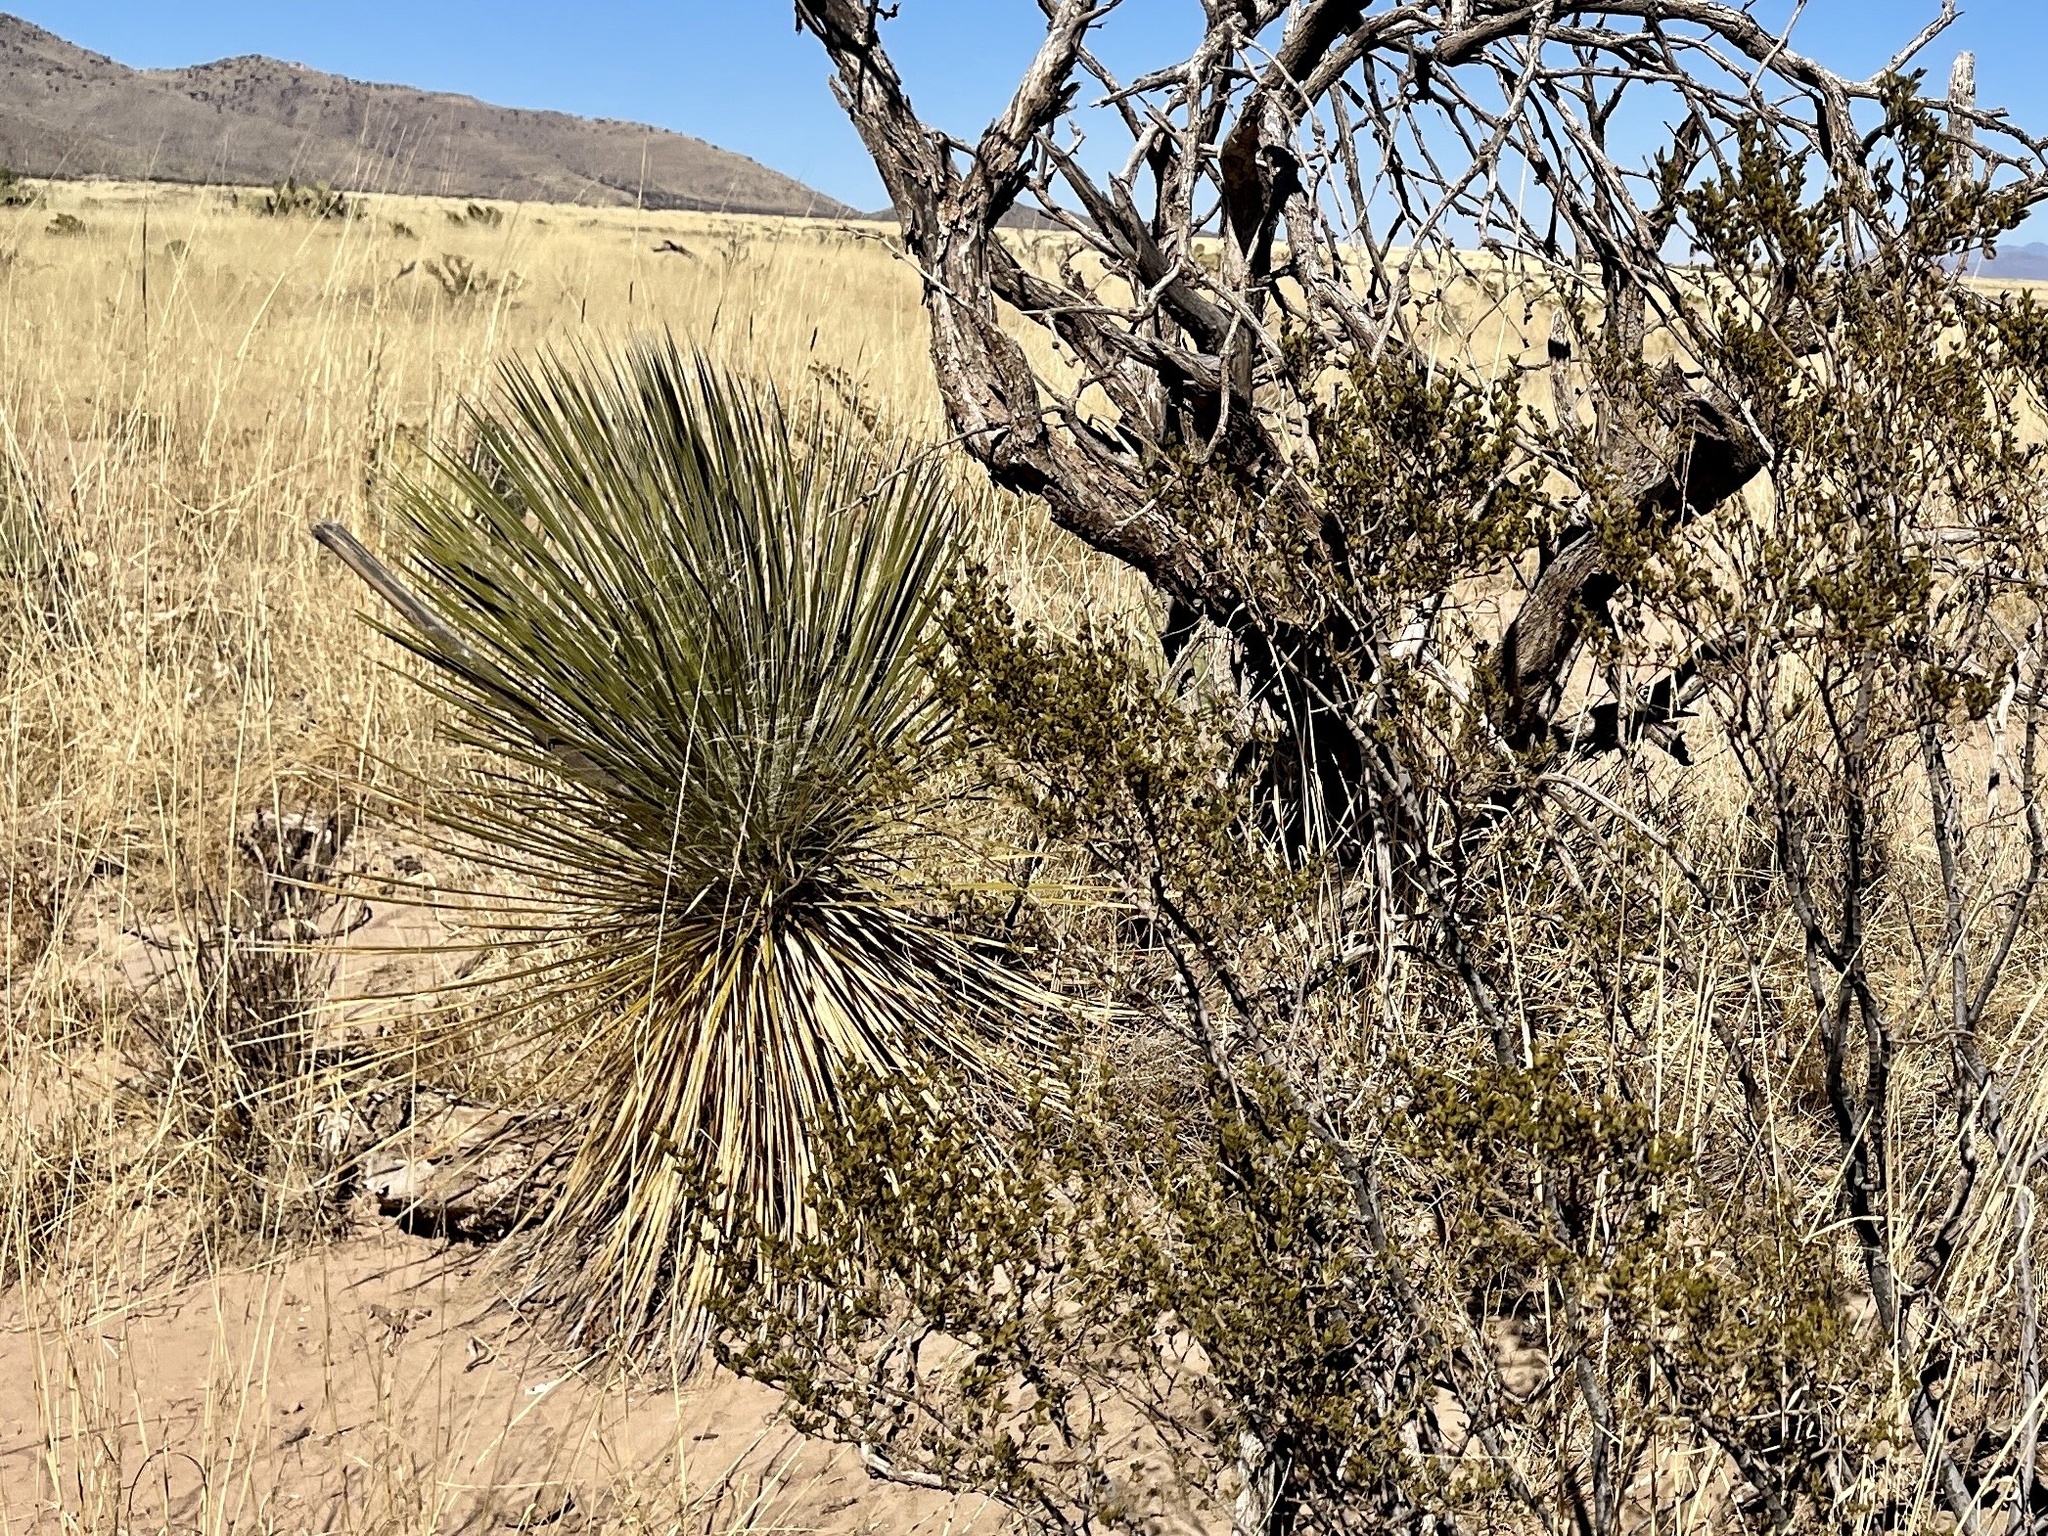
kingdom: Plantae
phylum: Tracheophyta
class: Liliopsida
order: Asparagales
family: Asparagaceae
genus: Yucca
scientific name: Yucca elata
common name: Palmella
